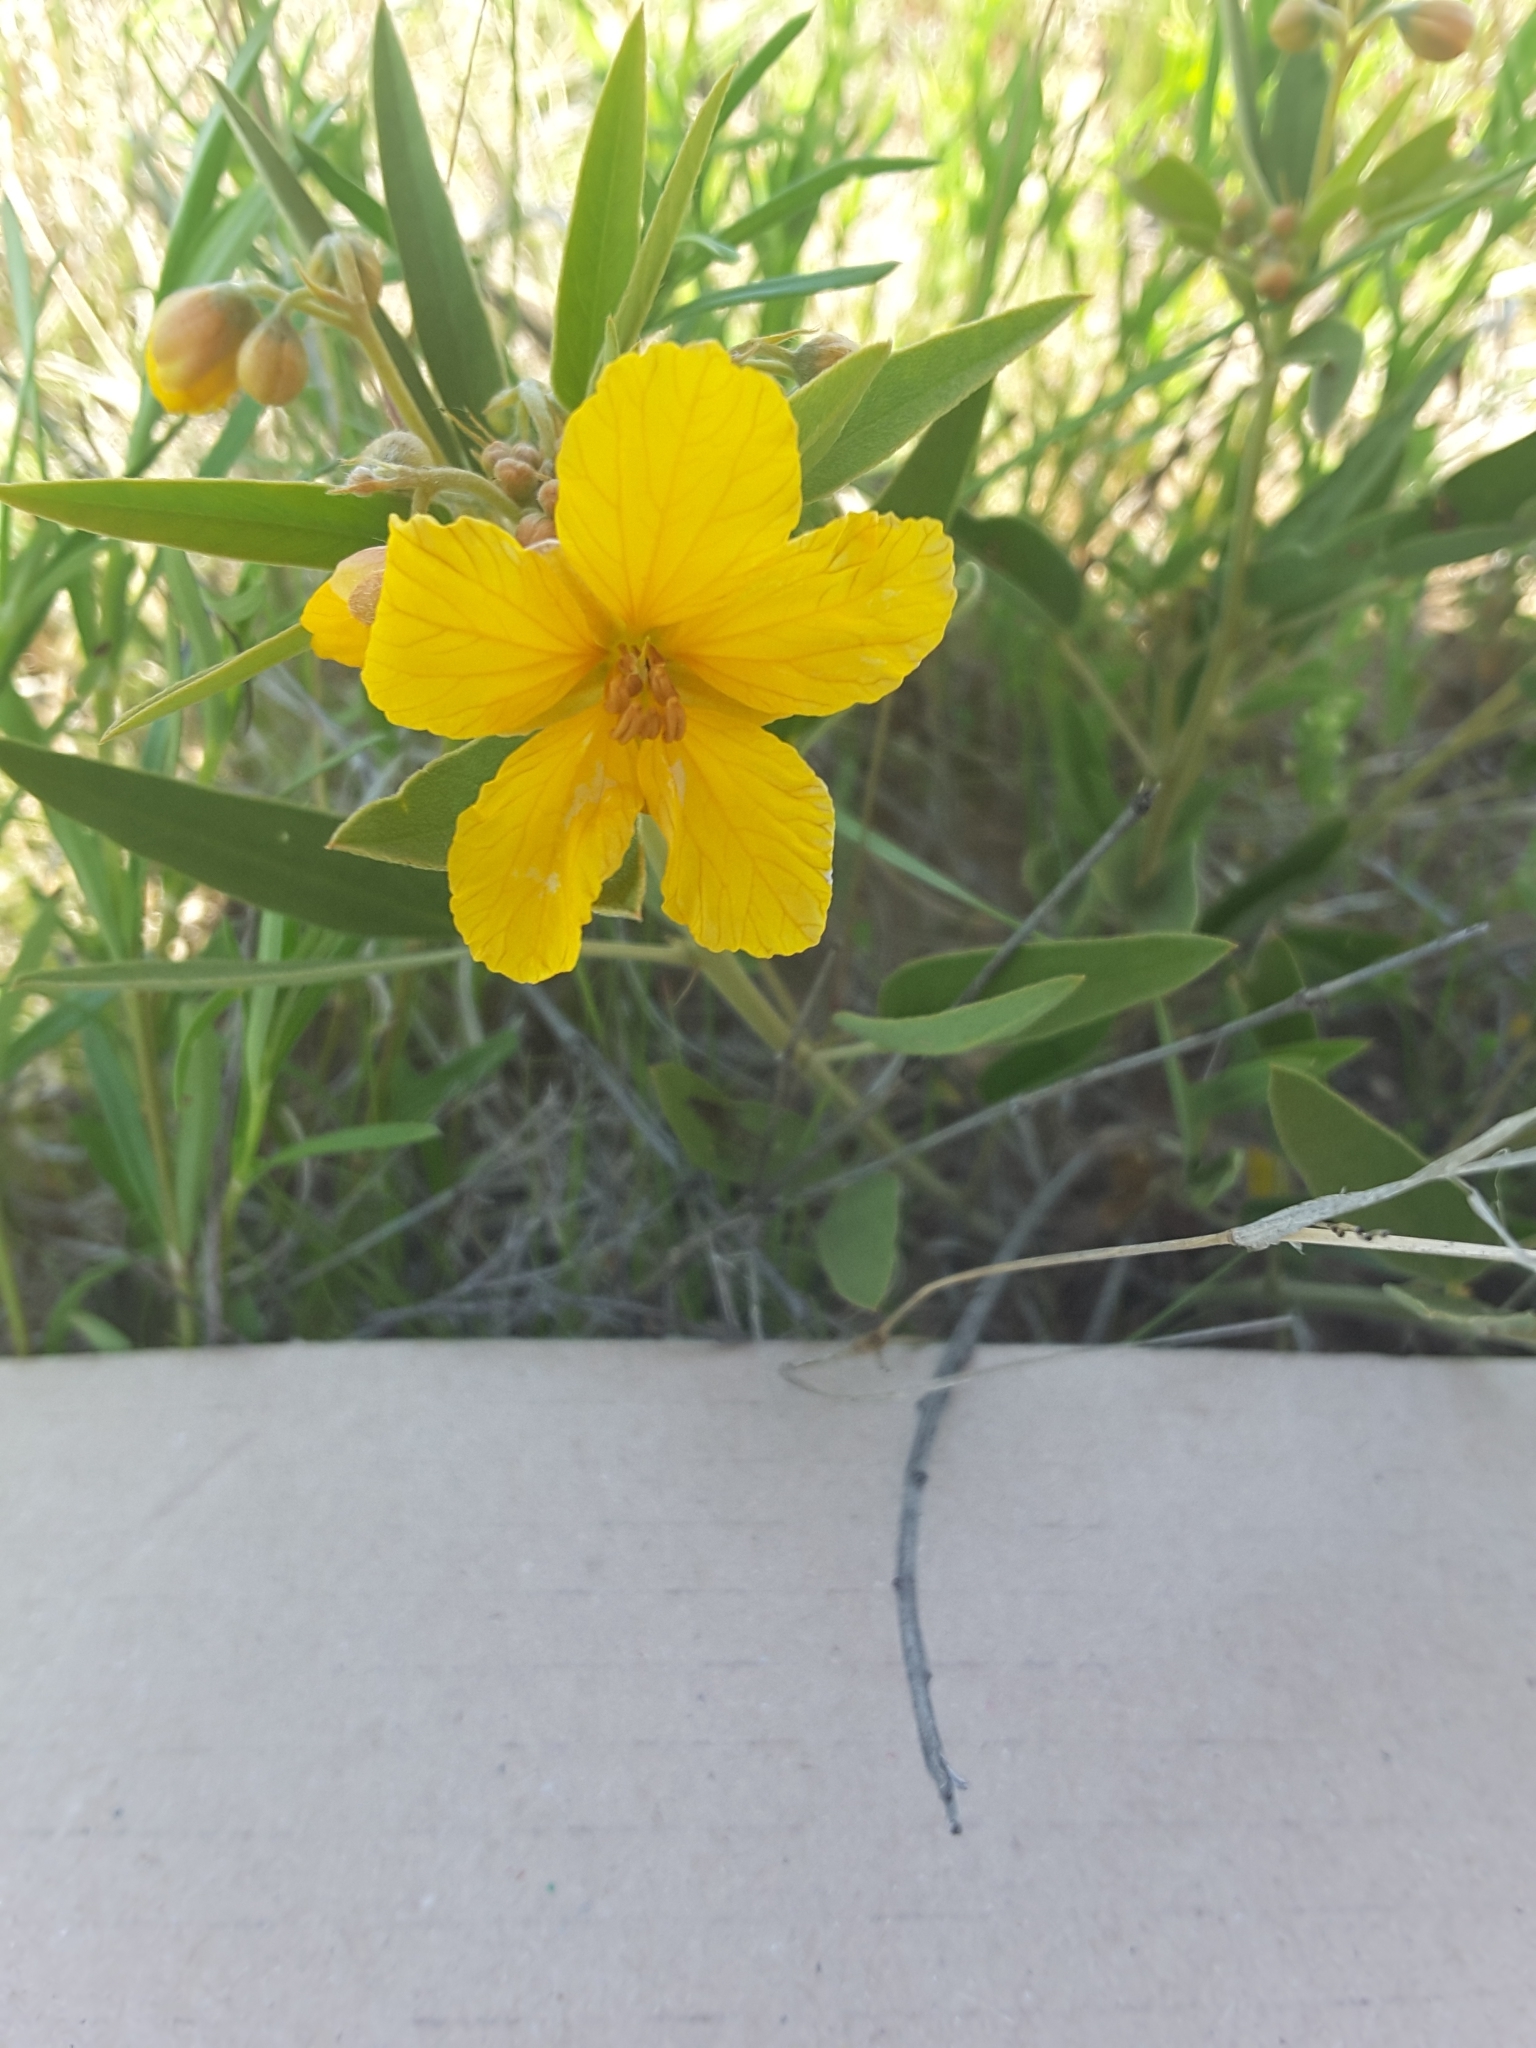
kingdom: Plantae
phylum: Tracheophyta
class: Magnoliopsida
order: Fabales
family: Fabaceae
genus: Senna
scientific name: Senna roemeriana
